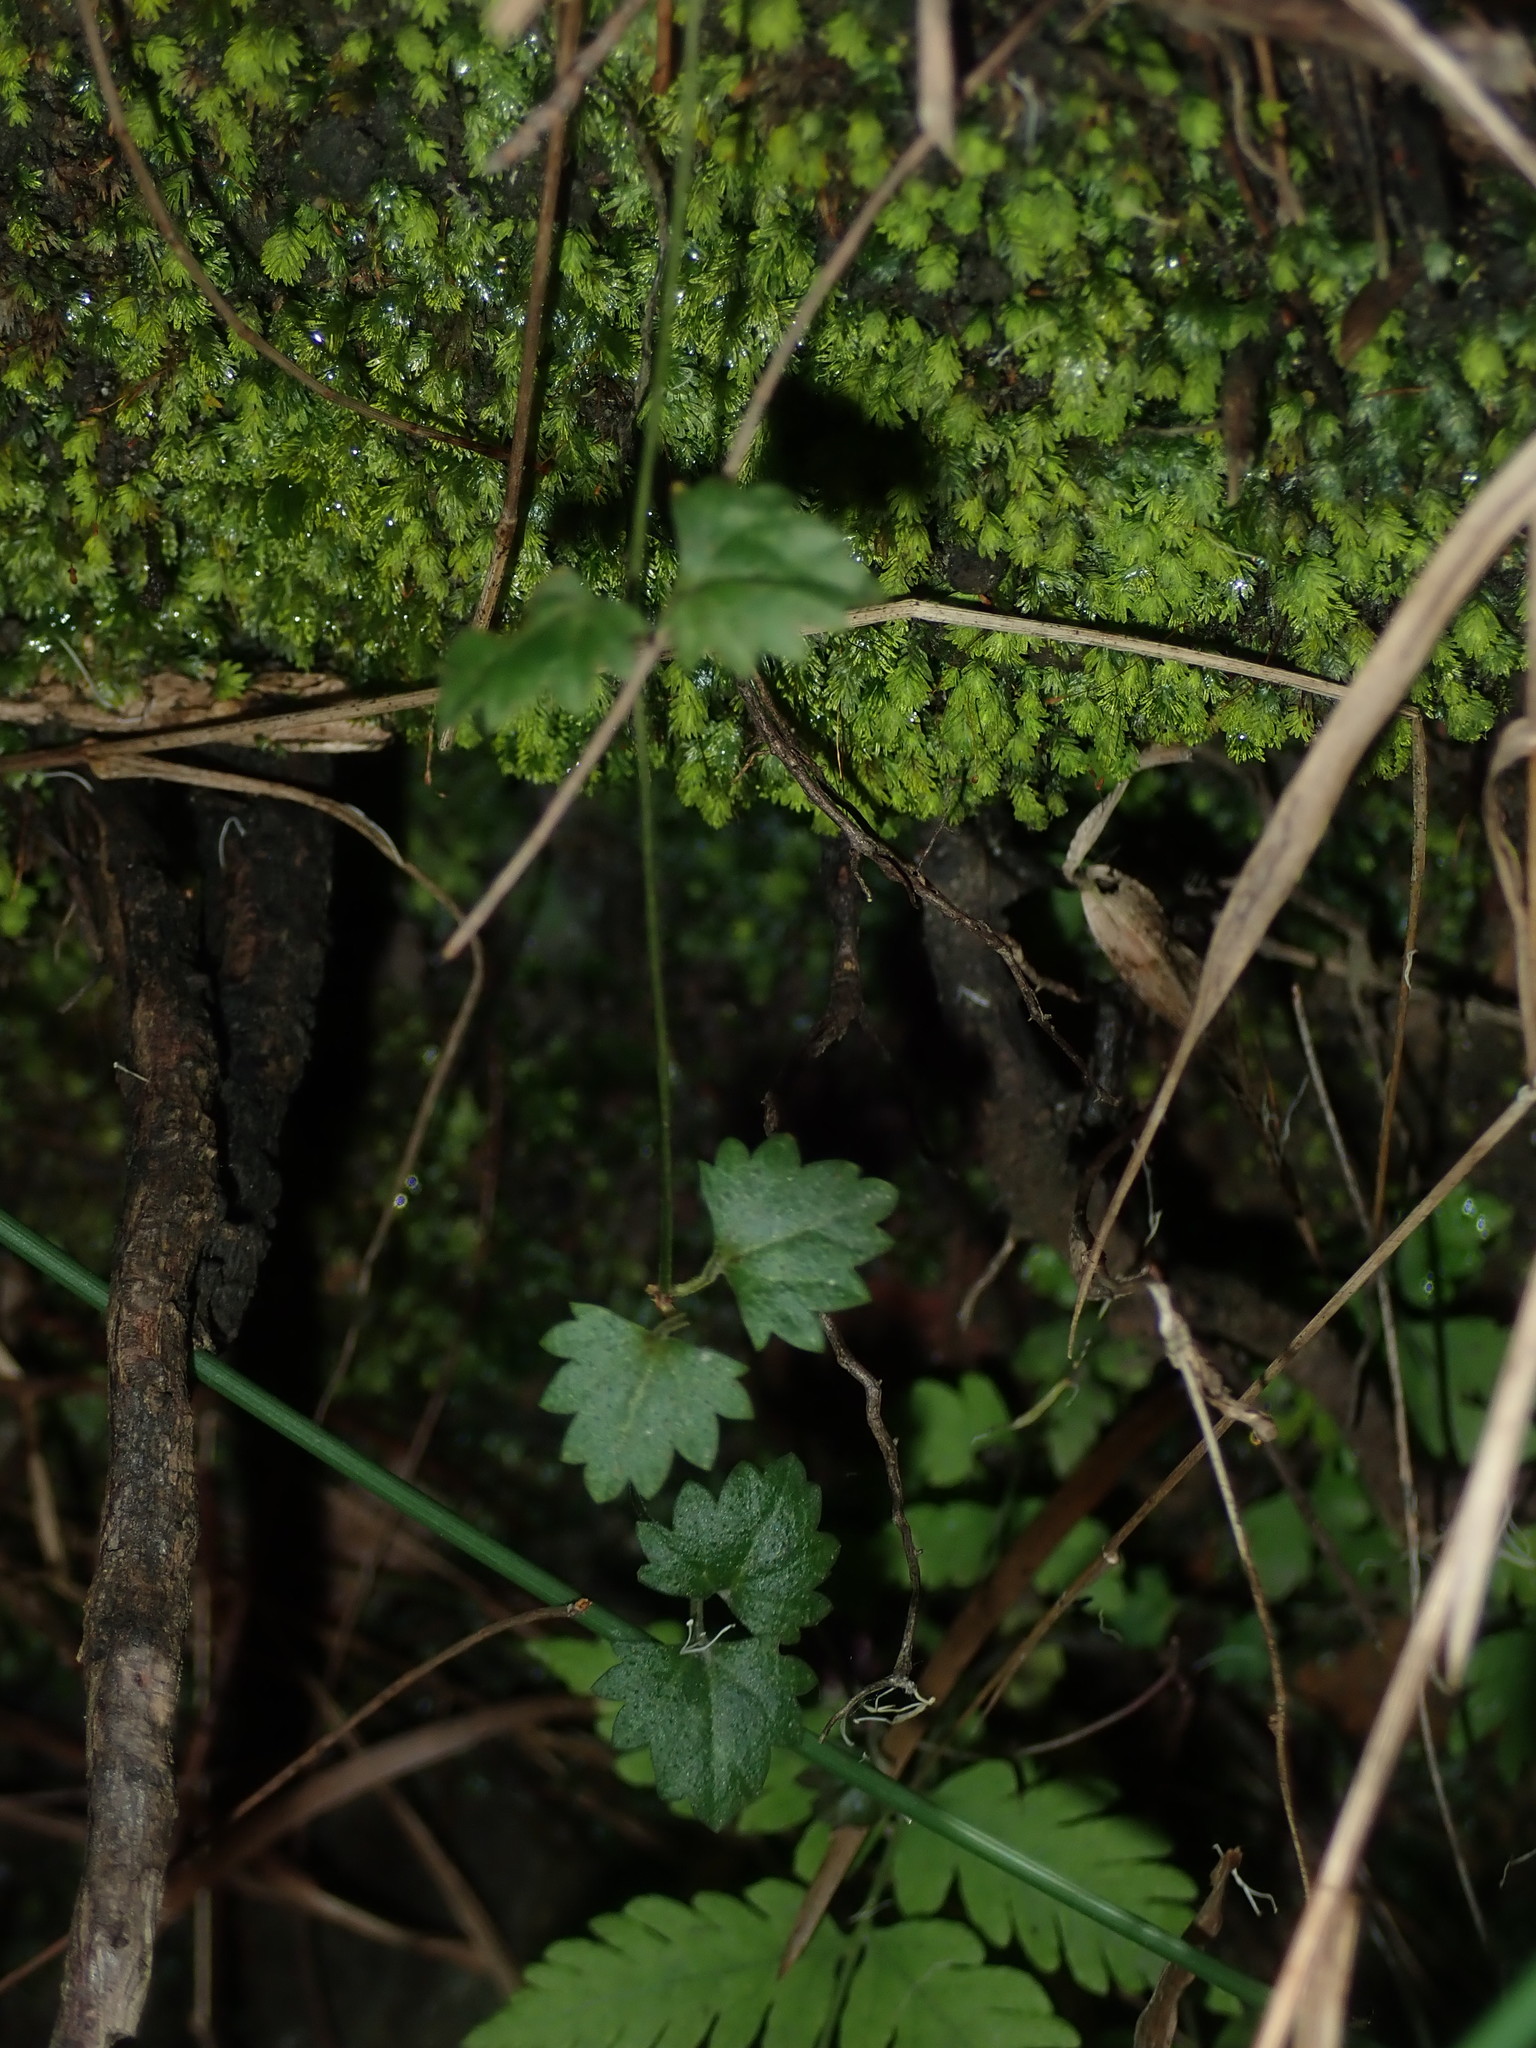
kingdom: Plantae
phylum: Tracheophyta
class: Magnoliopsida
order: Lamiales
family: Plantaginaceae
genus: Veronica
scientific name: Veronica plebeia
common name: Speedwell
